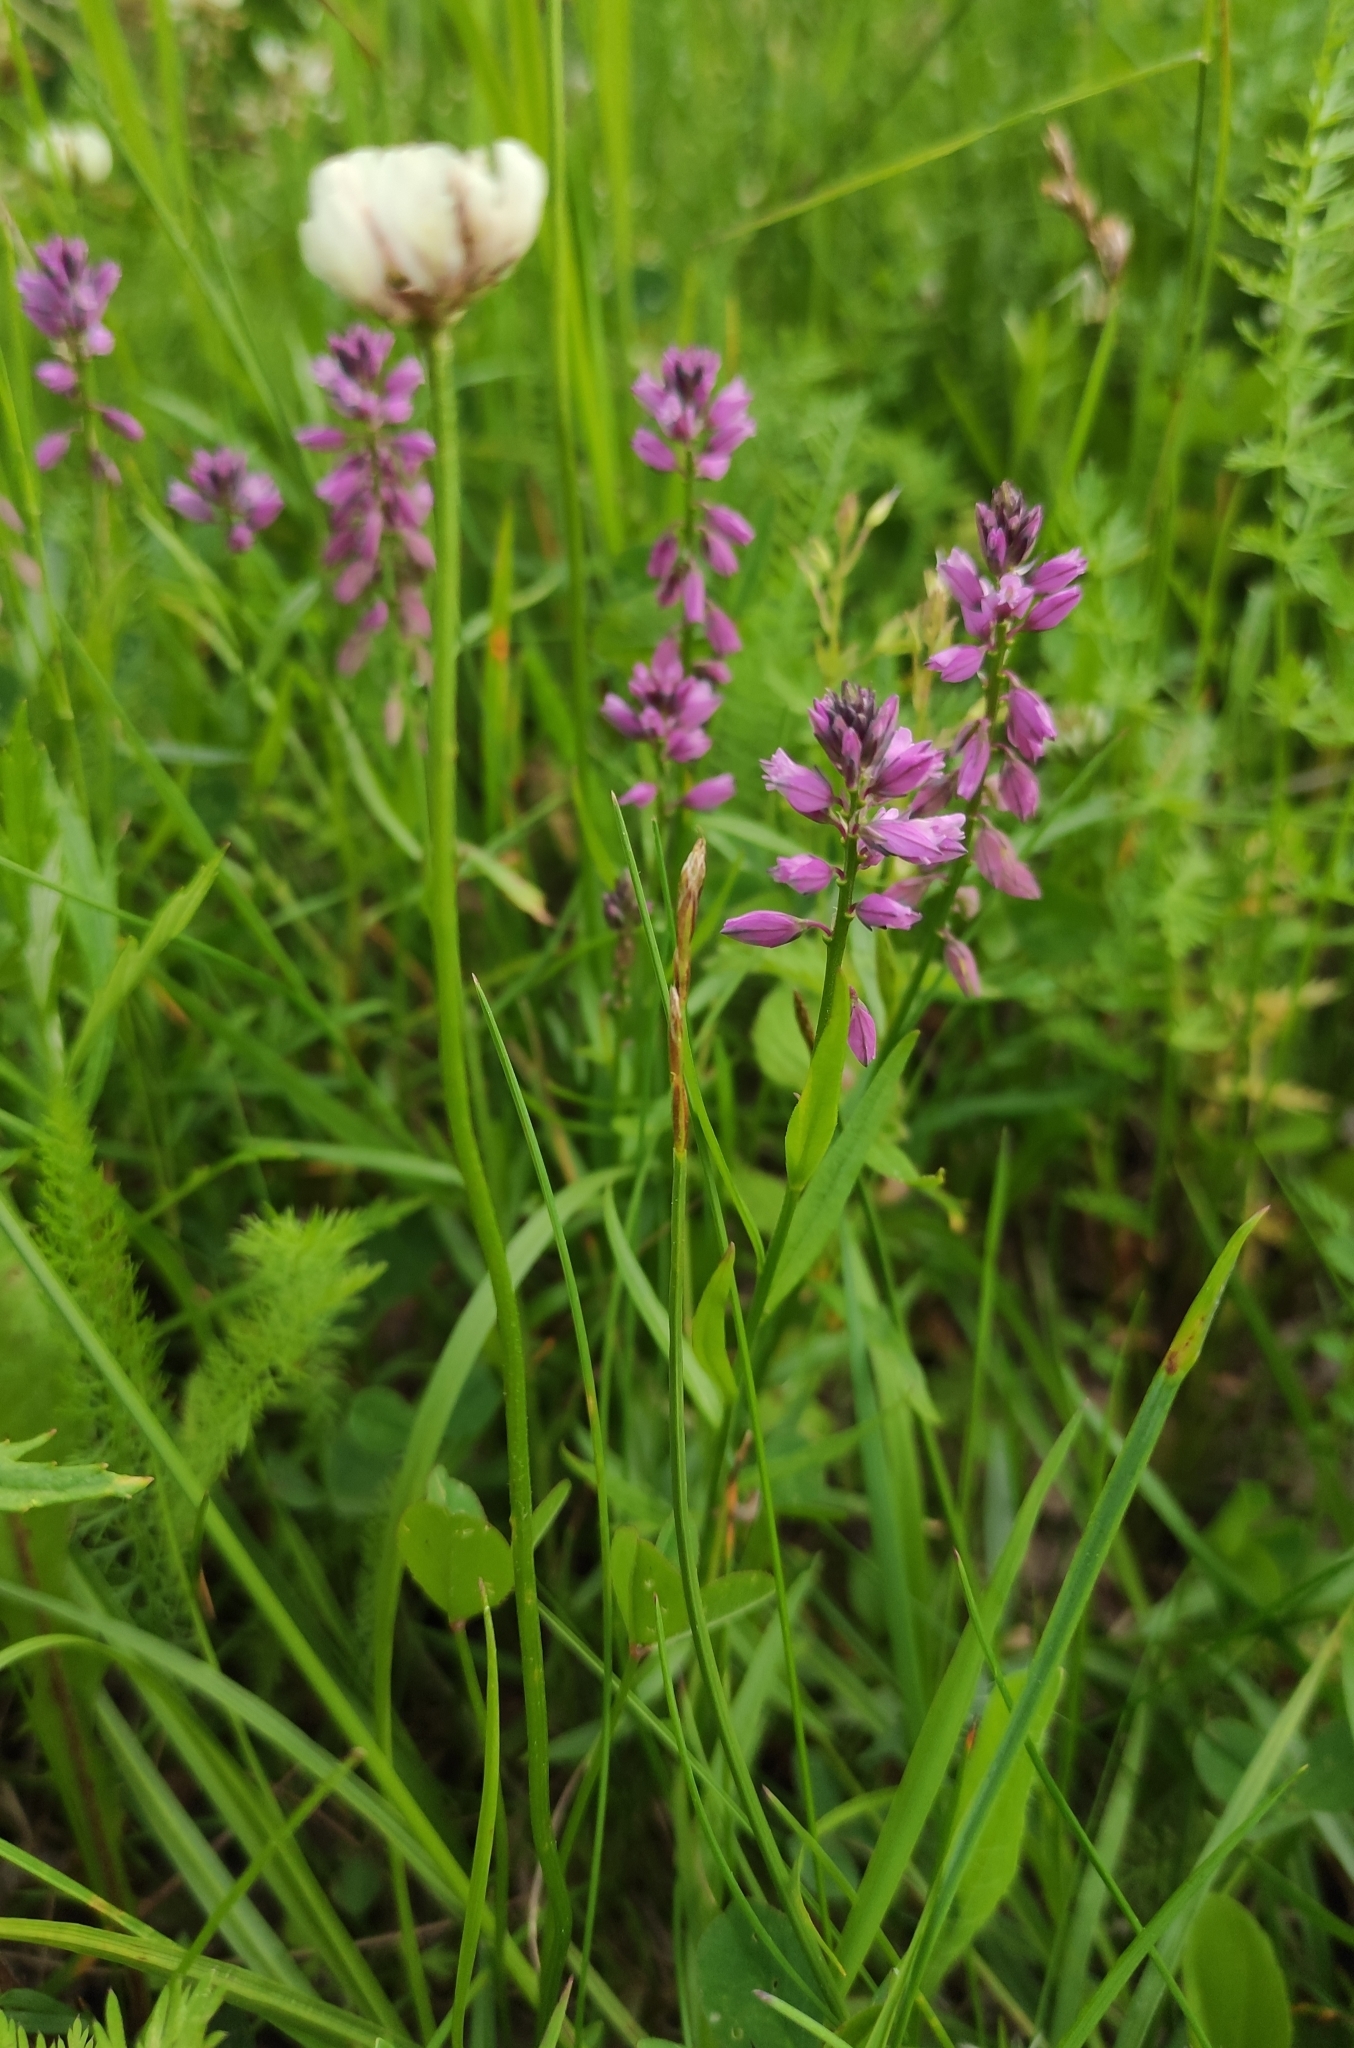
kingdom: Plantae
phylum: Tracheophyta
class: Magnoliopsida
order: Fabales
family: Polygalaceae
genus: Polygala
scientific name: Polygala comosa
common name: Tufted milkwort
